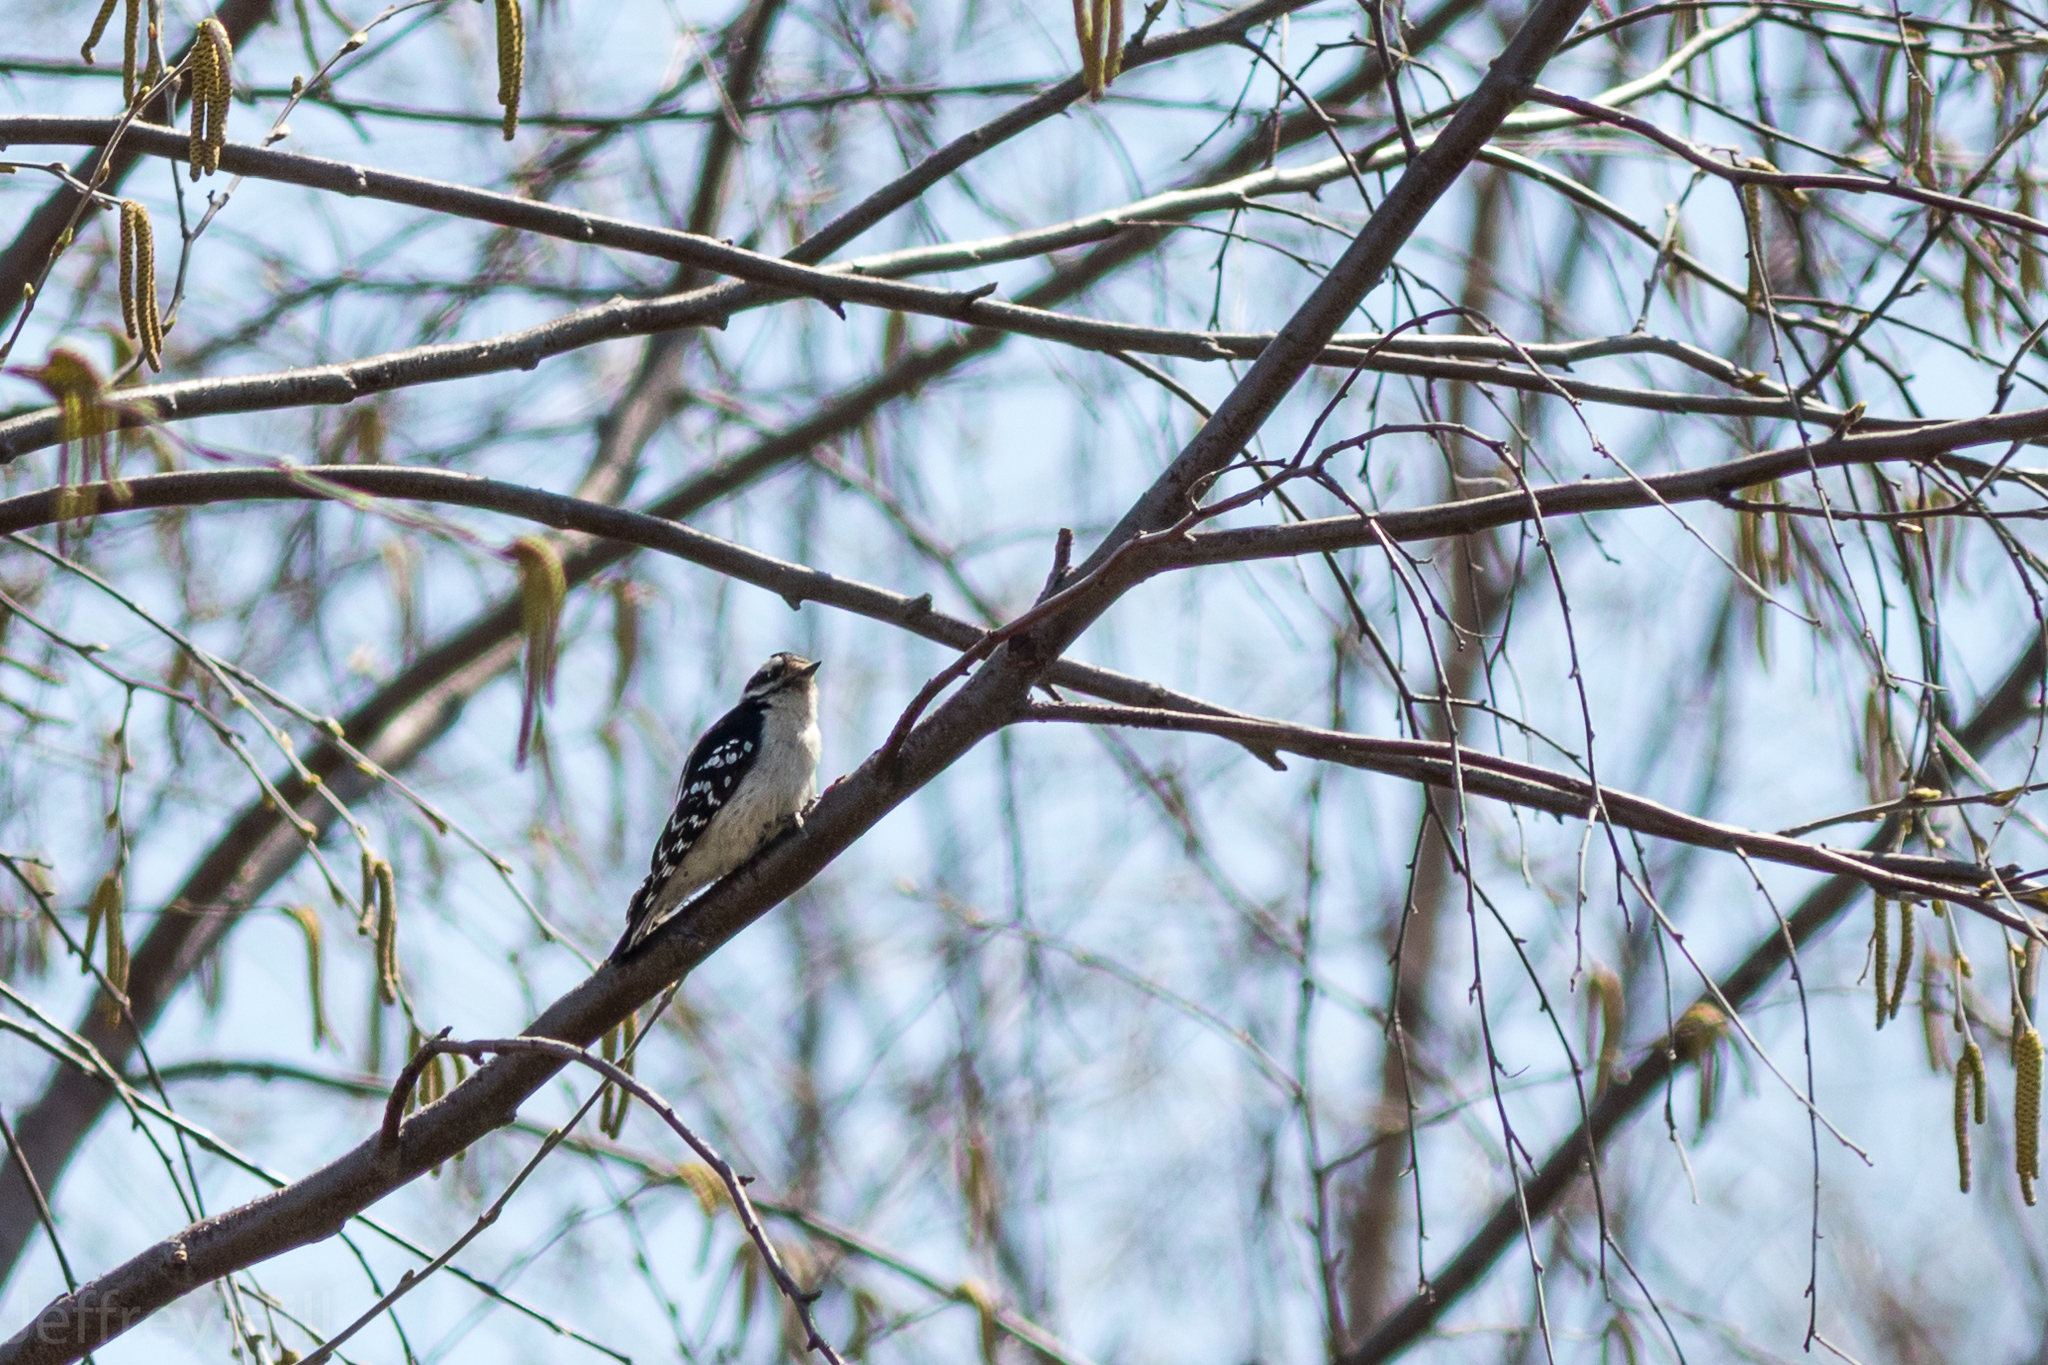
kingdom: Animalia
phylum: Chordata
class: Aves
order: Piciformes
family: Picidae
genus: Dryobates
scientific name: Dryobates pubescens
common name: Downy woodpecker
